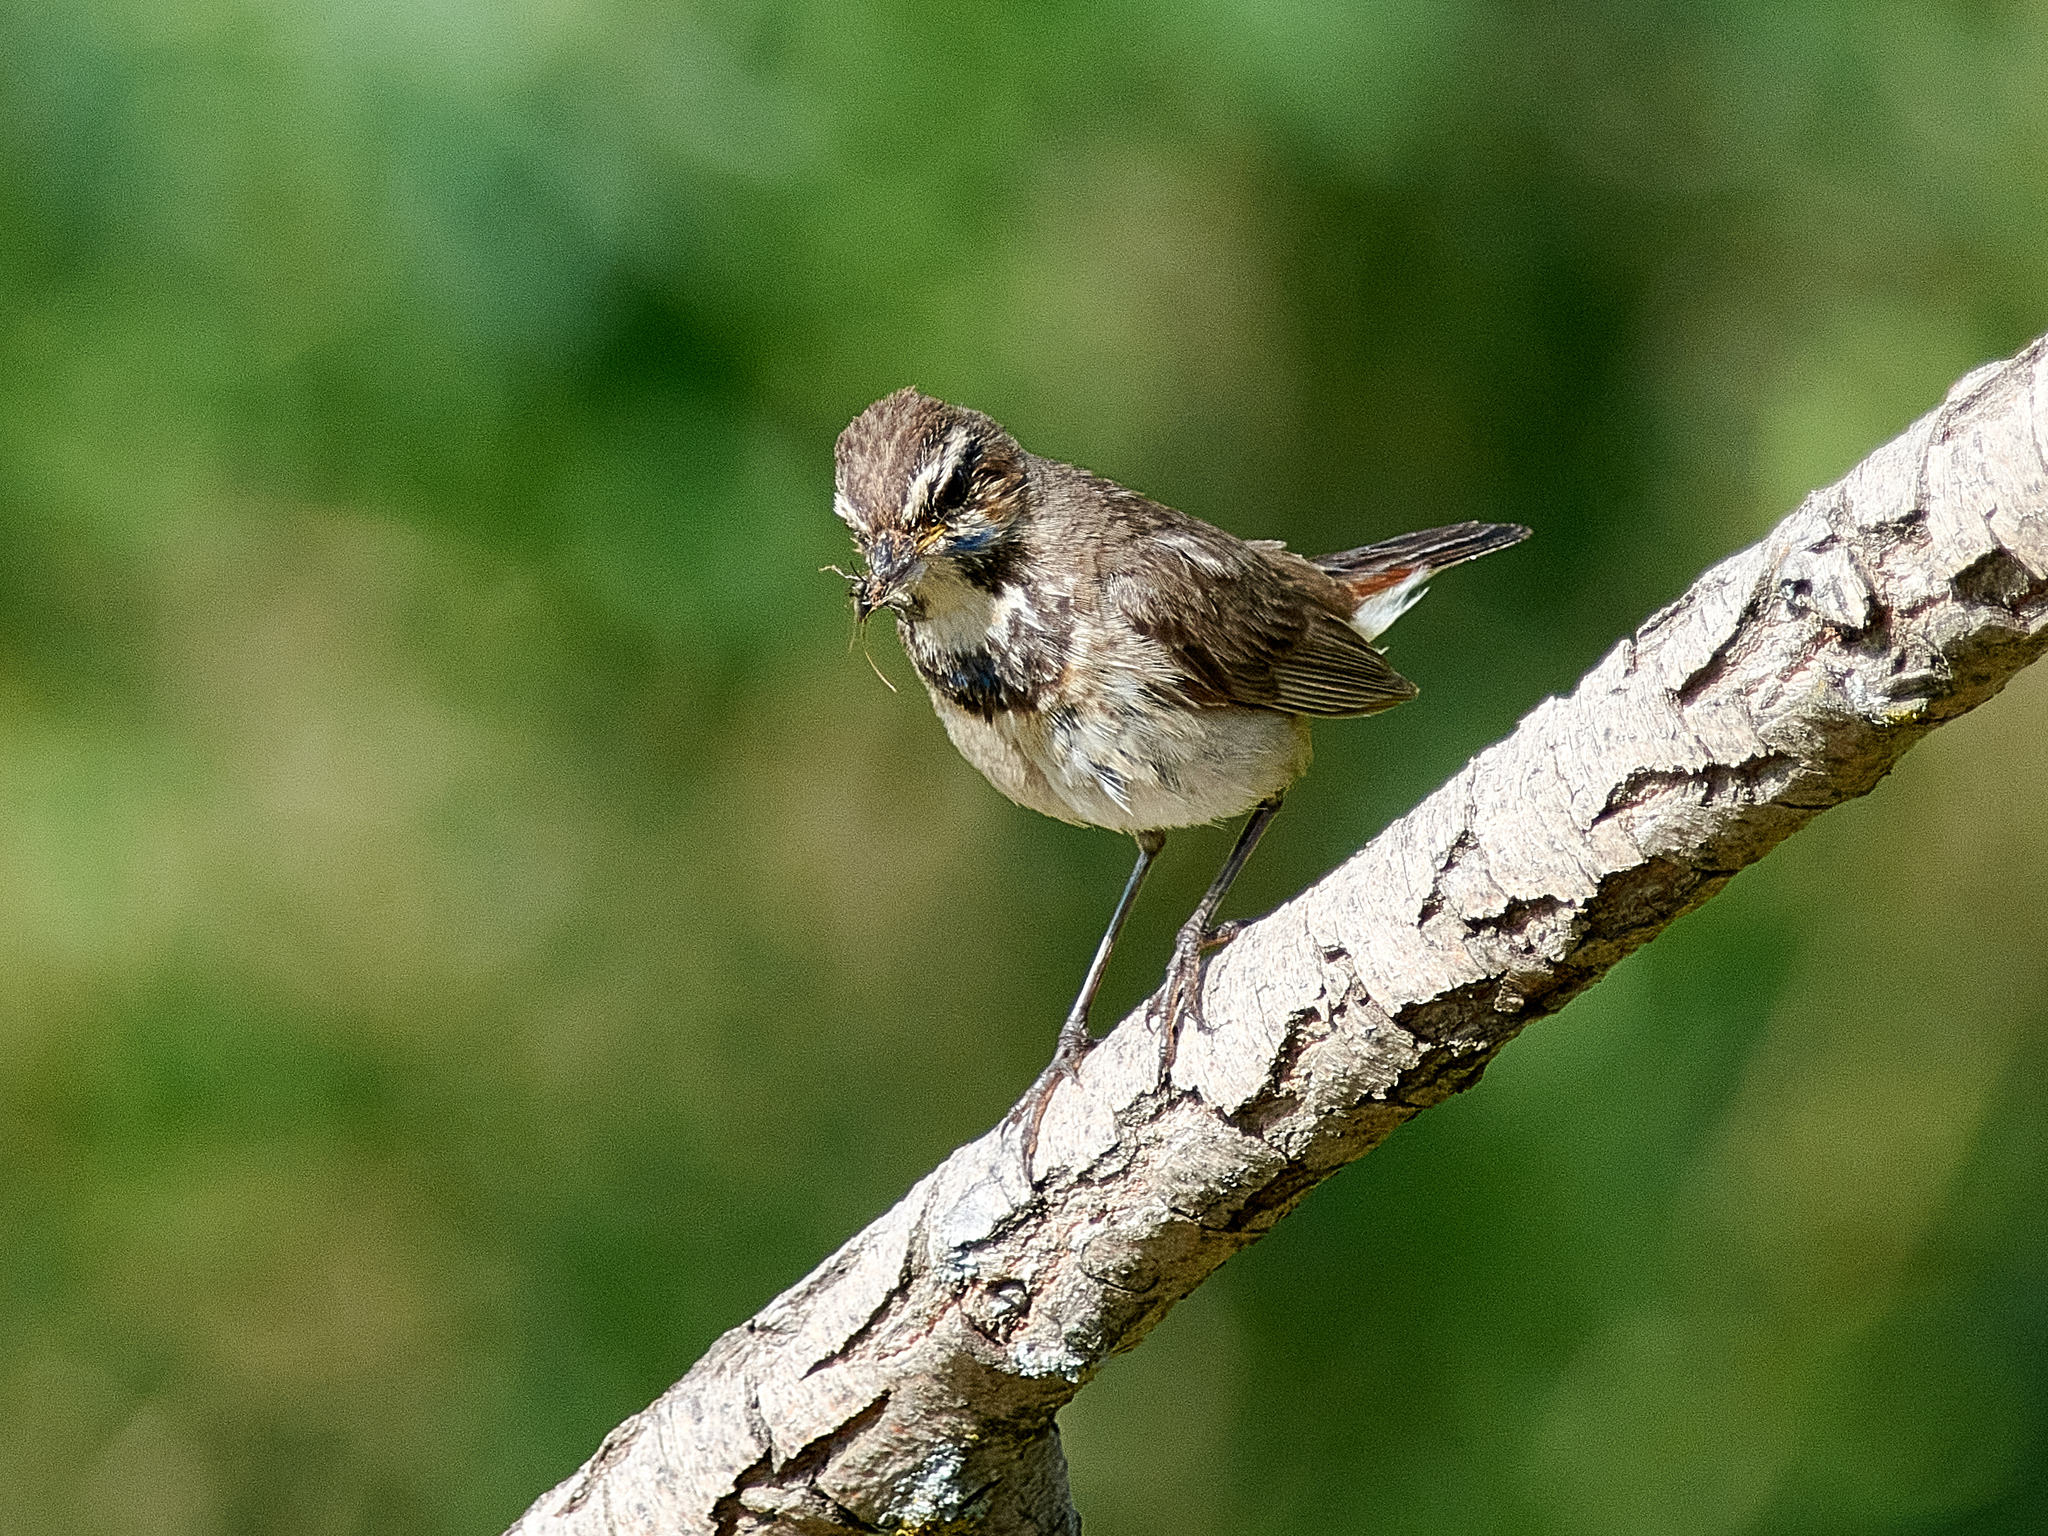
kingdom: Animalia
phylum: Chordata
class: Aves
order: Passeriformes
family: Muscicapidae
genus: Luscinia
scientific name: Luscinia svecica
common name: Bluethroat
